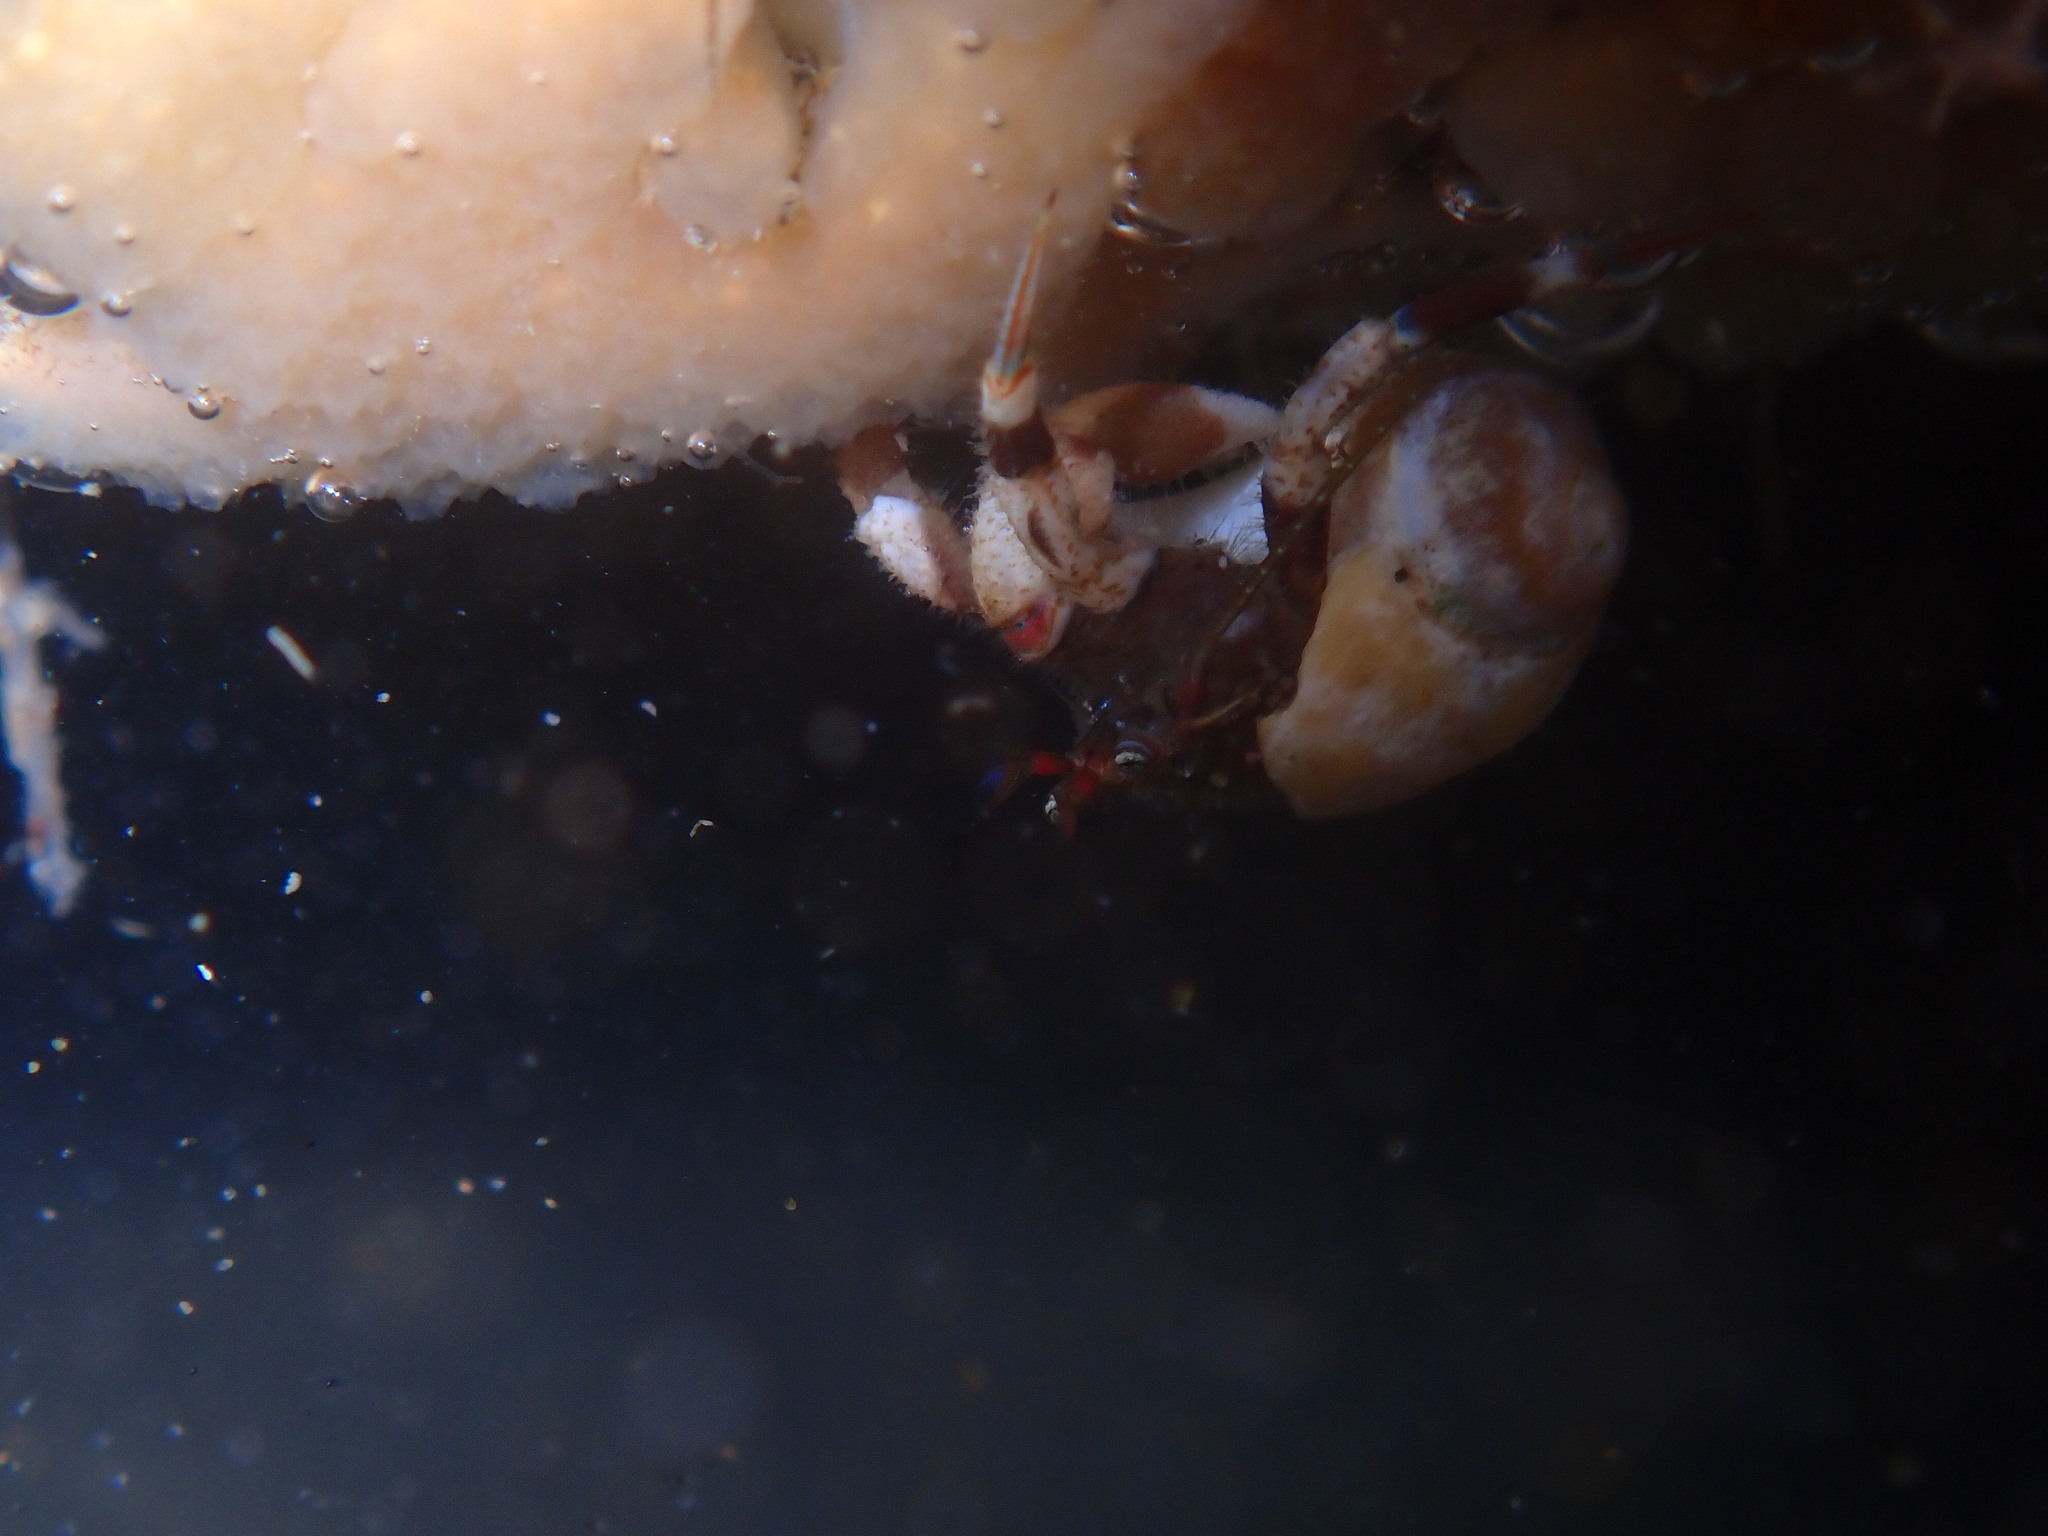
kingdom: Animalia
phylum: Arthropoda
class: Malacostraca
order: Decapoda
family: Paguridae
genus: Pagurus
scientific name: Pagurus hirsutiusculus
